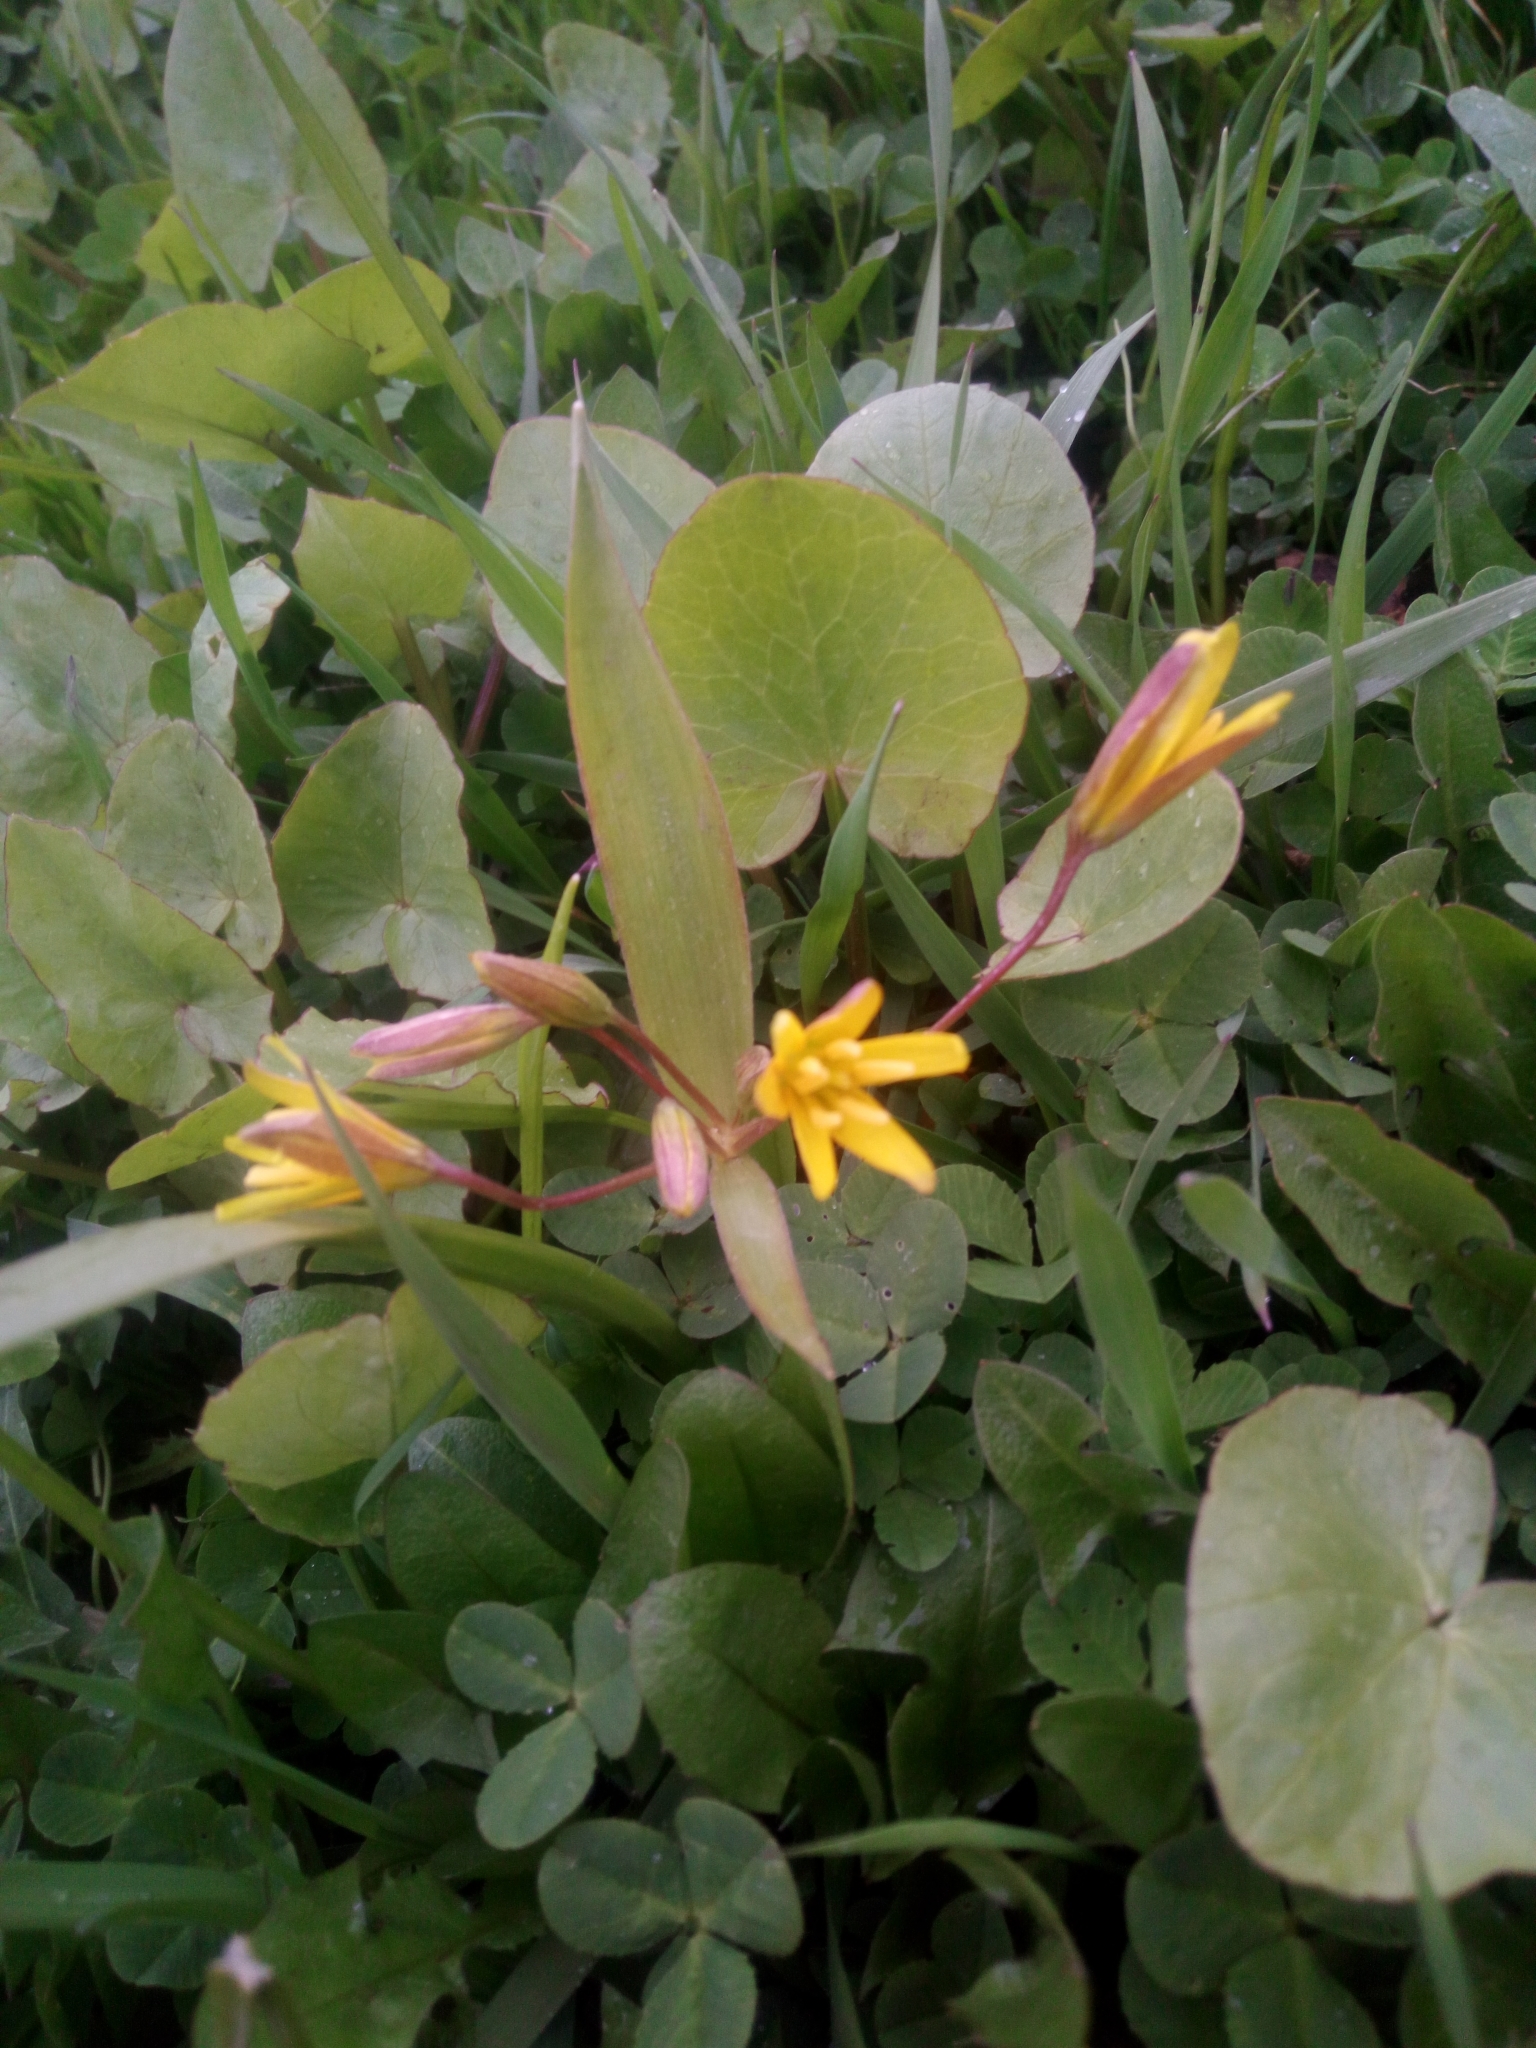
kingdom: Plantae
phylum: Tracheophyta
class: Liliopsida
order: Liliales
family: Liliaceae
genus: Gagea
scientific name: Gagea fragifera
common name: Lily
